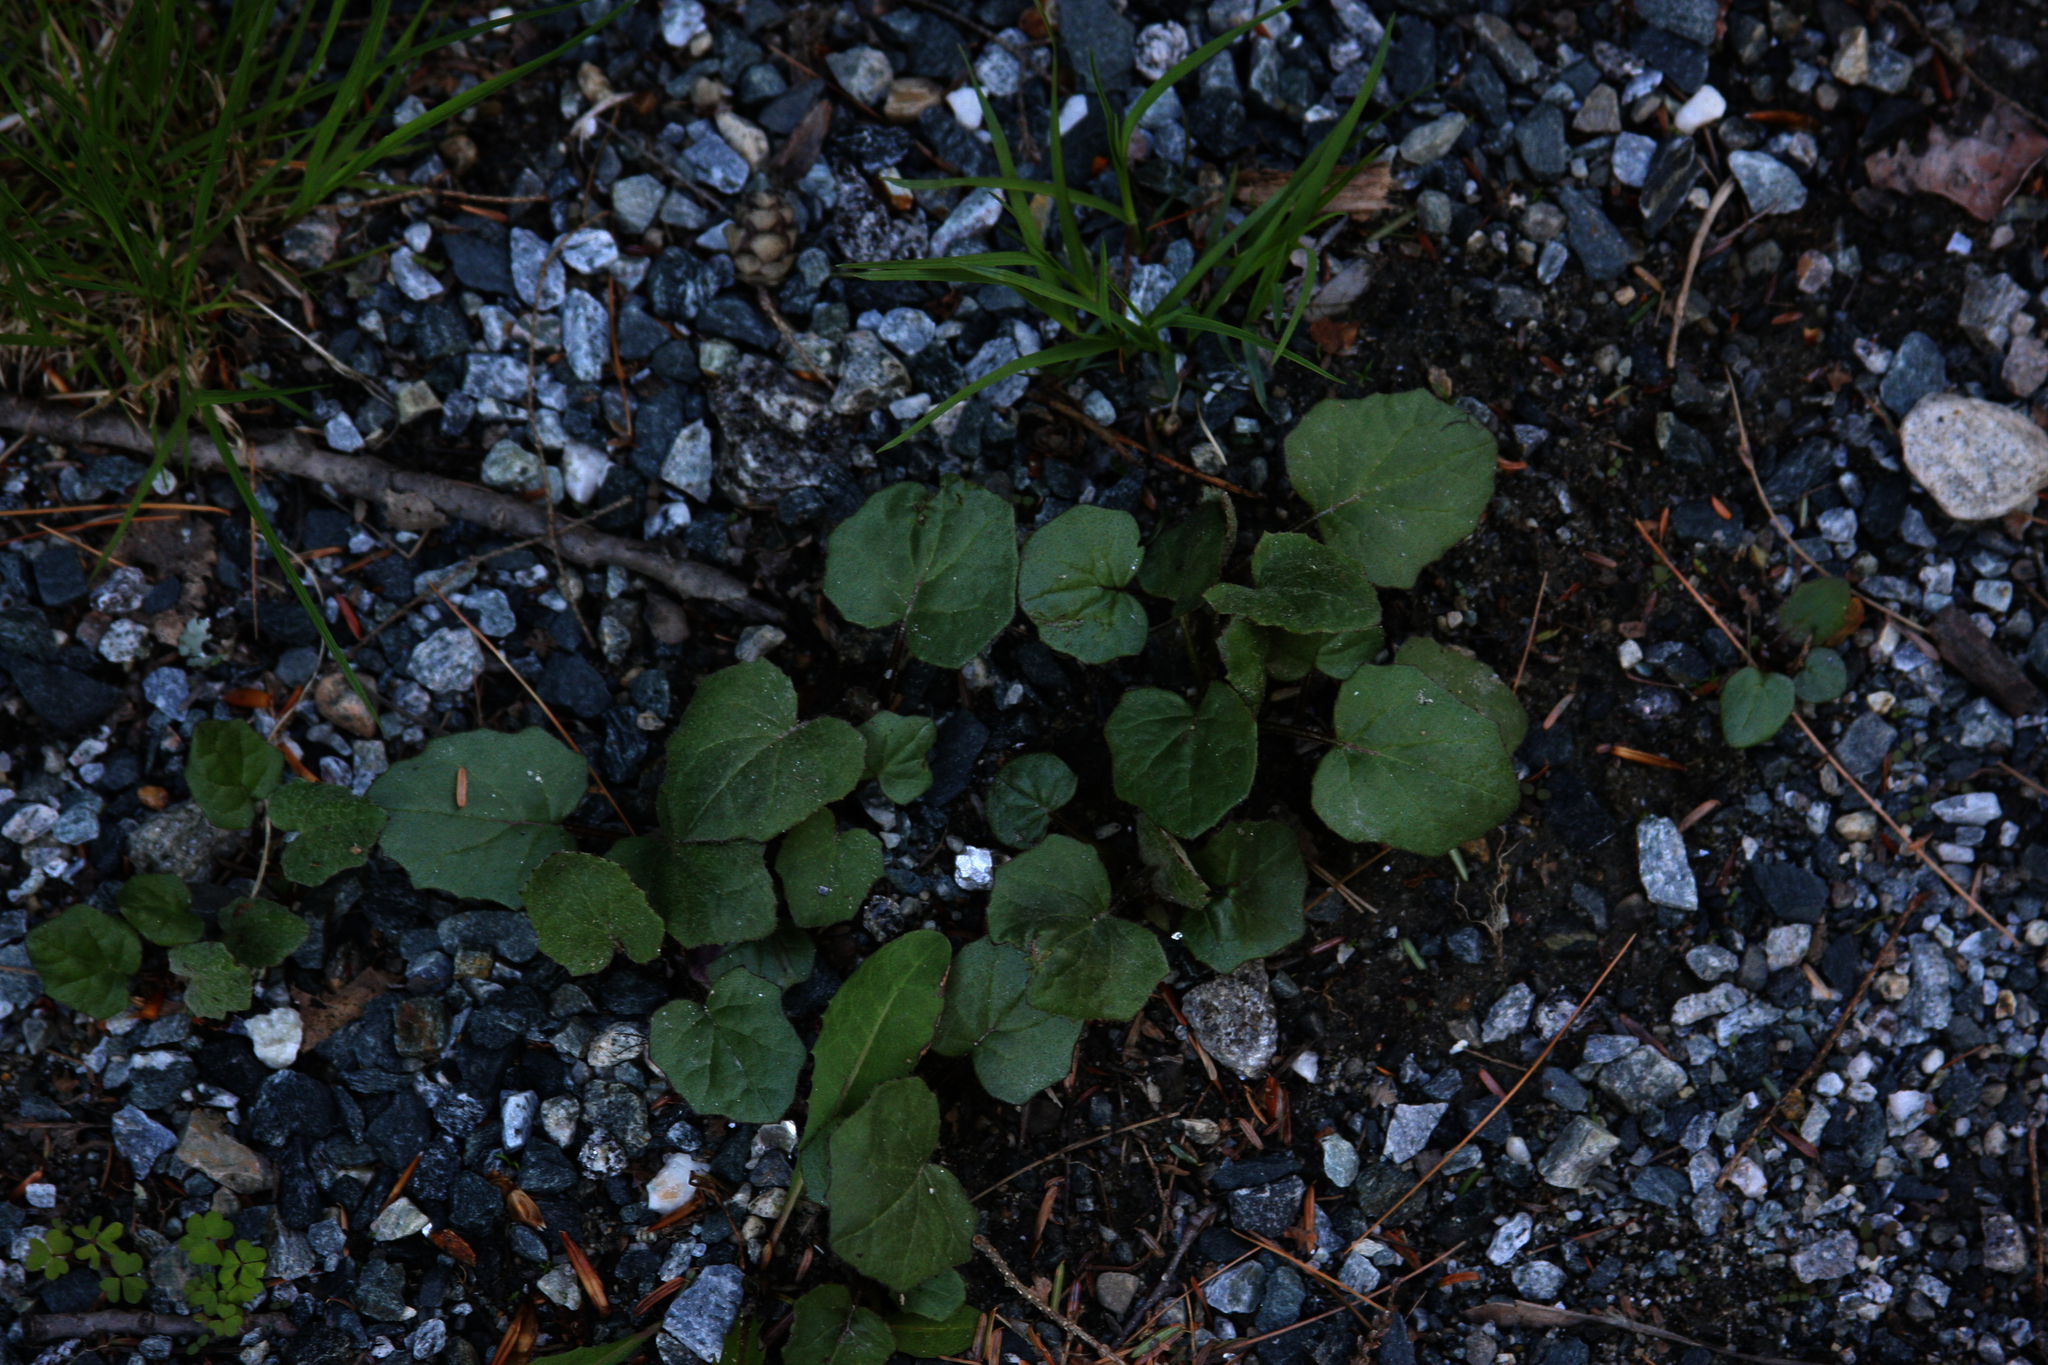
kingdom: Plantae
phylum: Tracheophyta
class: Magnoliopsida
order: Asterales
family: Asteraceae
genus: Tussilago
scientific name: Tussilago farfara
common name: Coltsfoot
